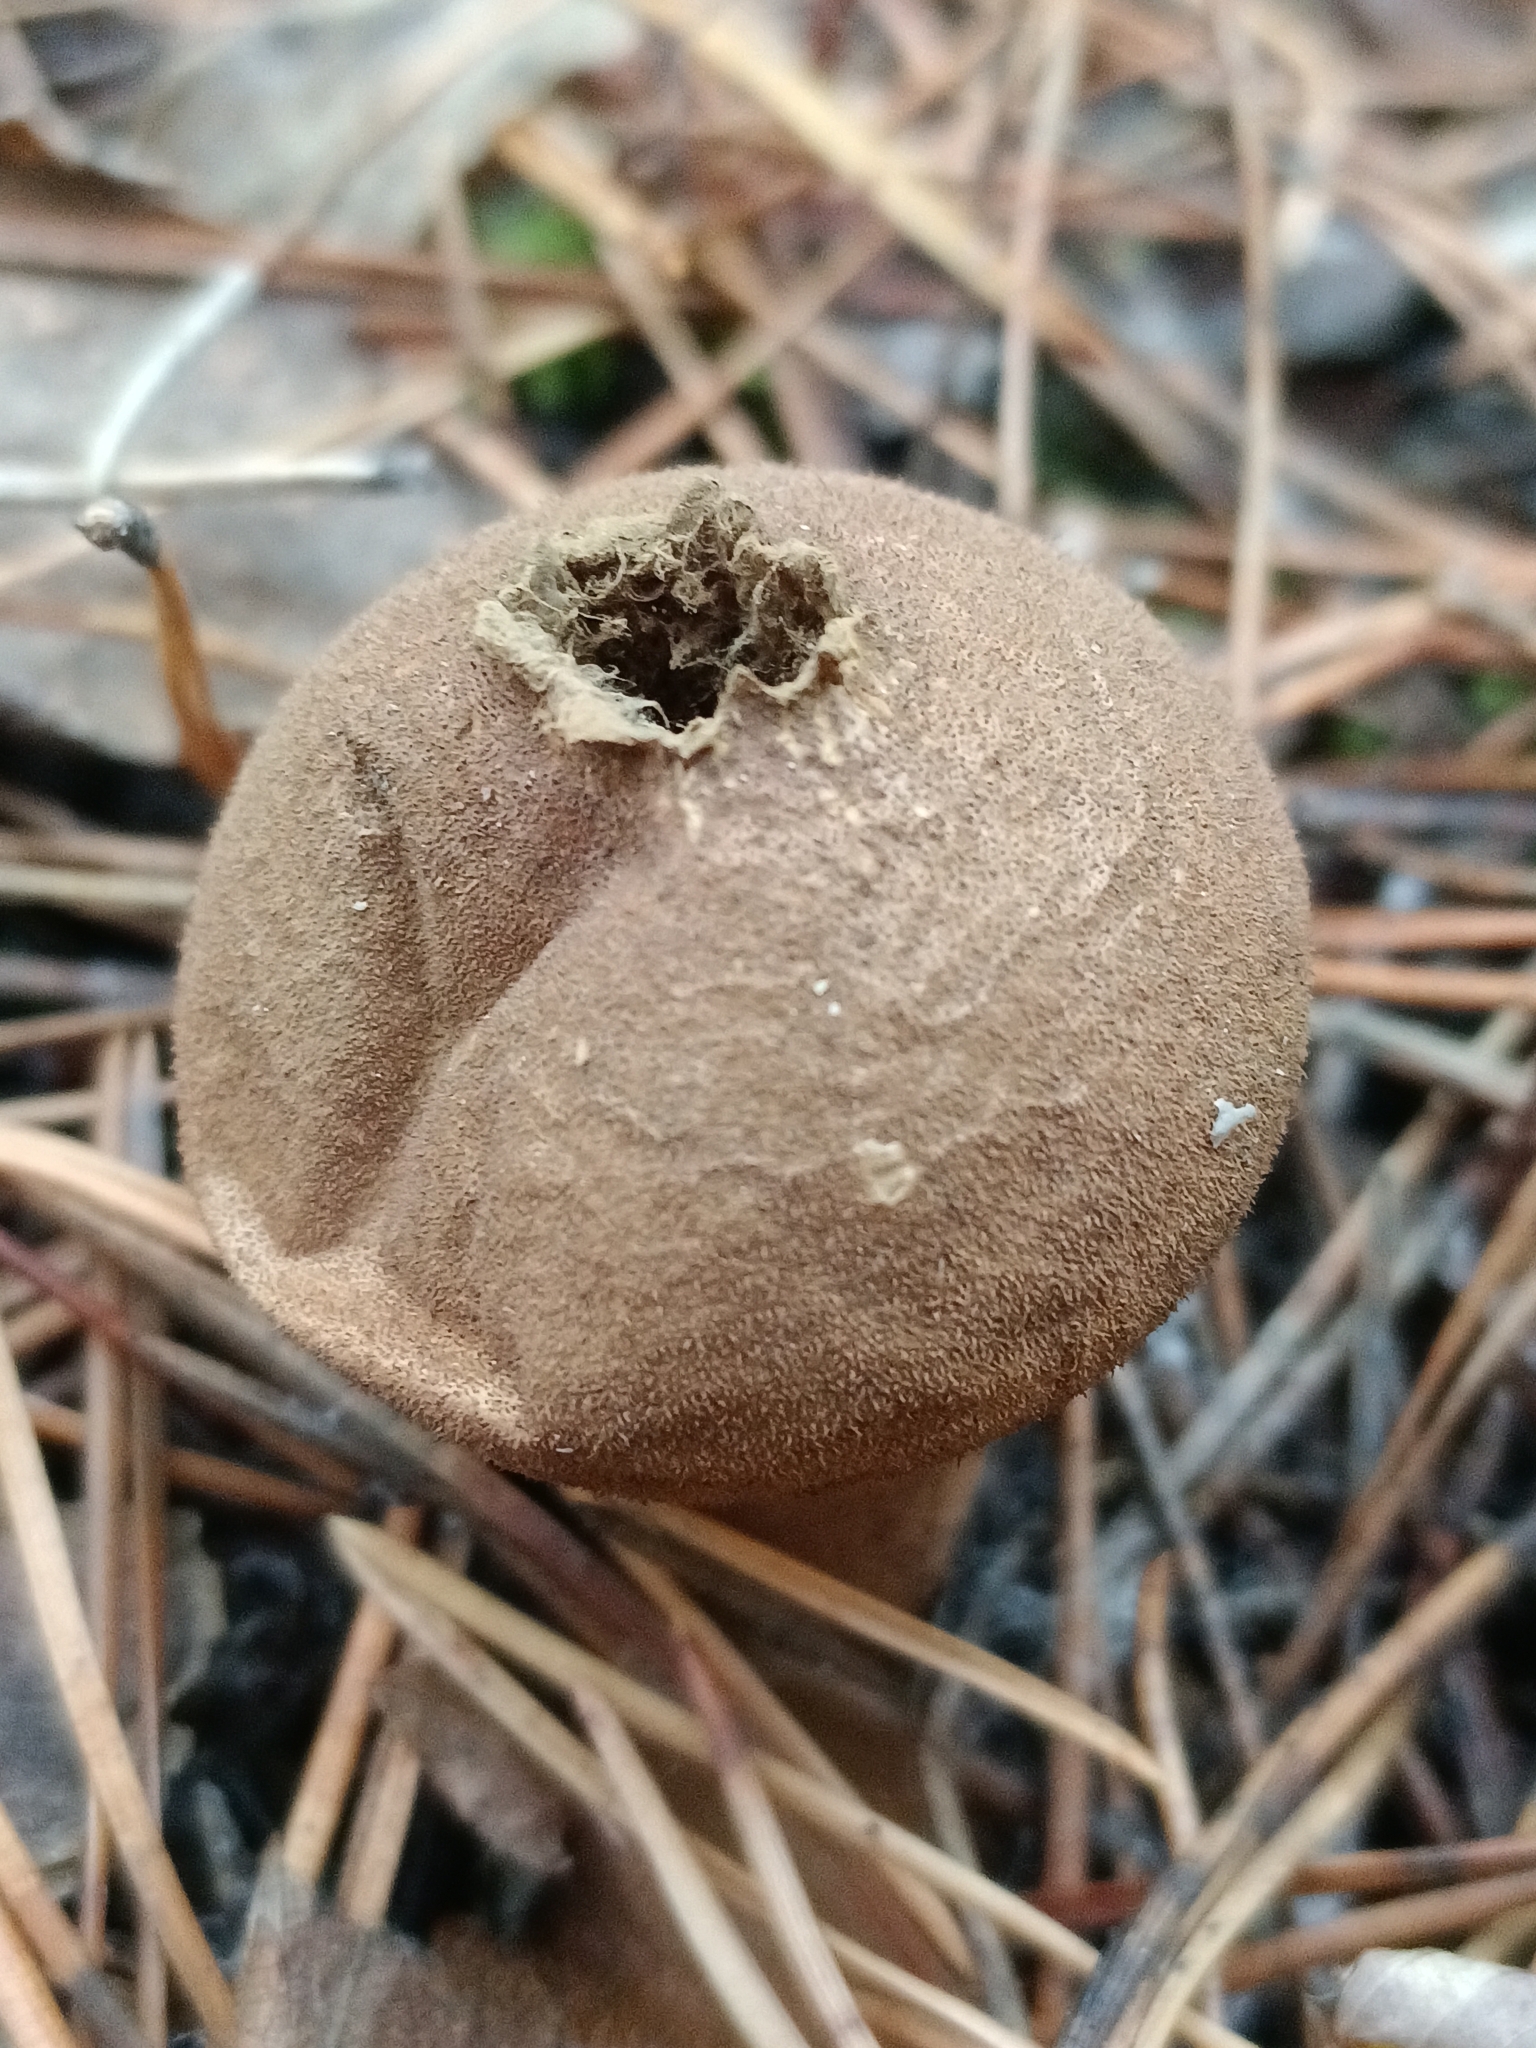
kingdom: Fungi
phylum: Basidiomycota
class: Agaricomycetes
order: Agaricales
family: Lycoperdaceae
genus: Apioperdon
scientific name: Apioperdon pyriforme
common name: Pear-shaped puffball
